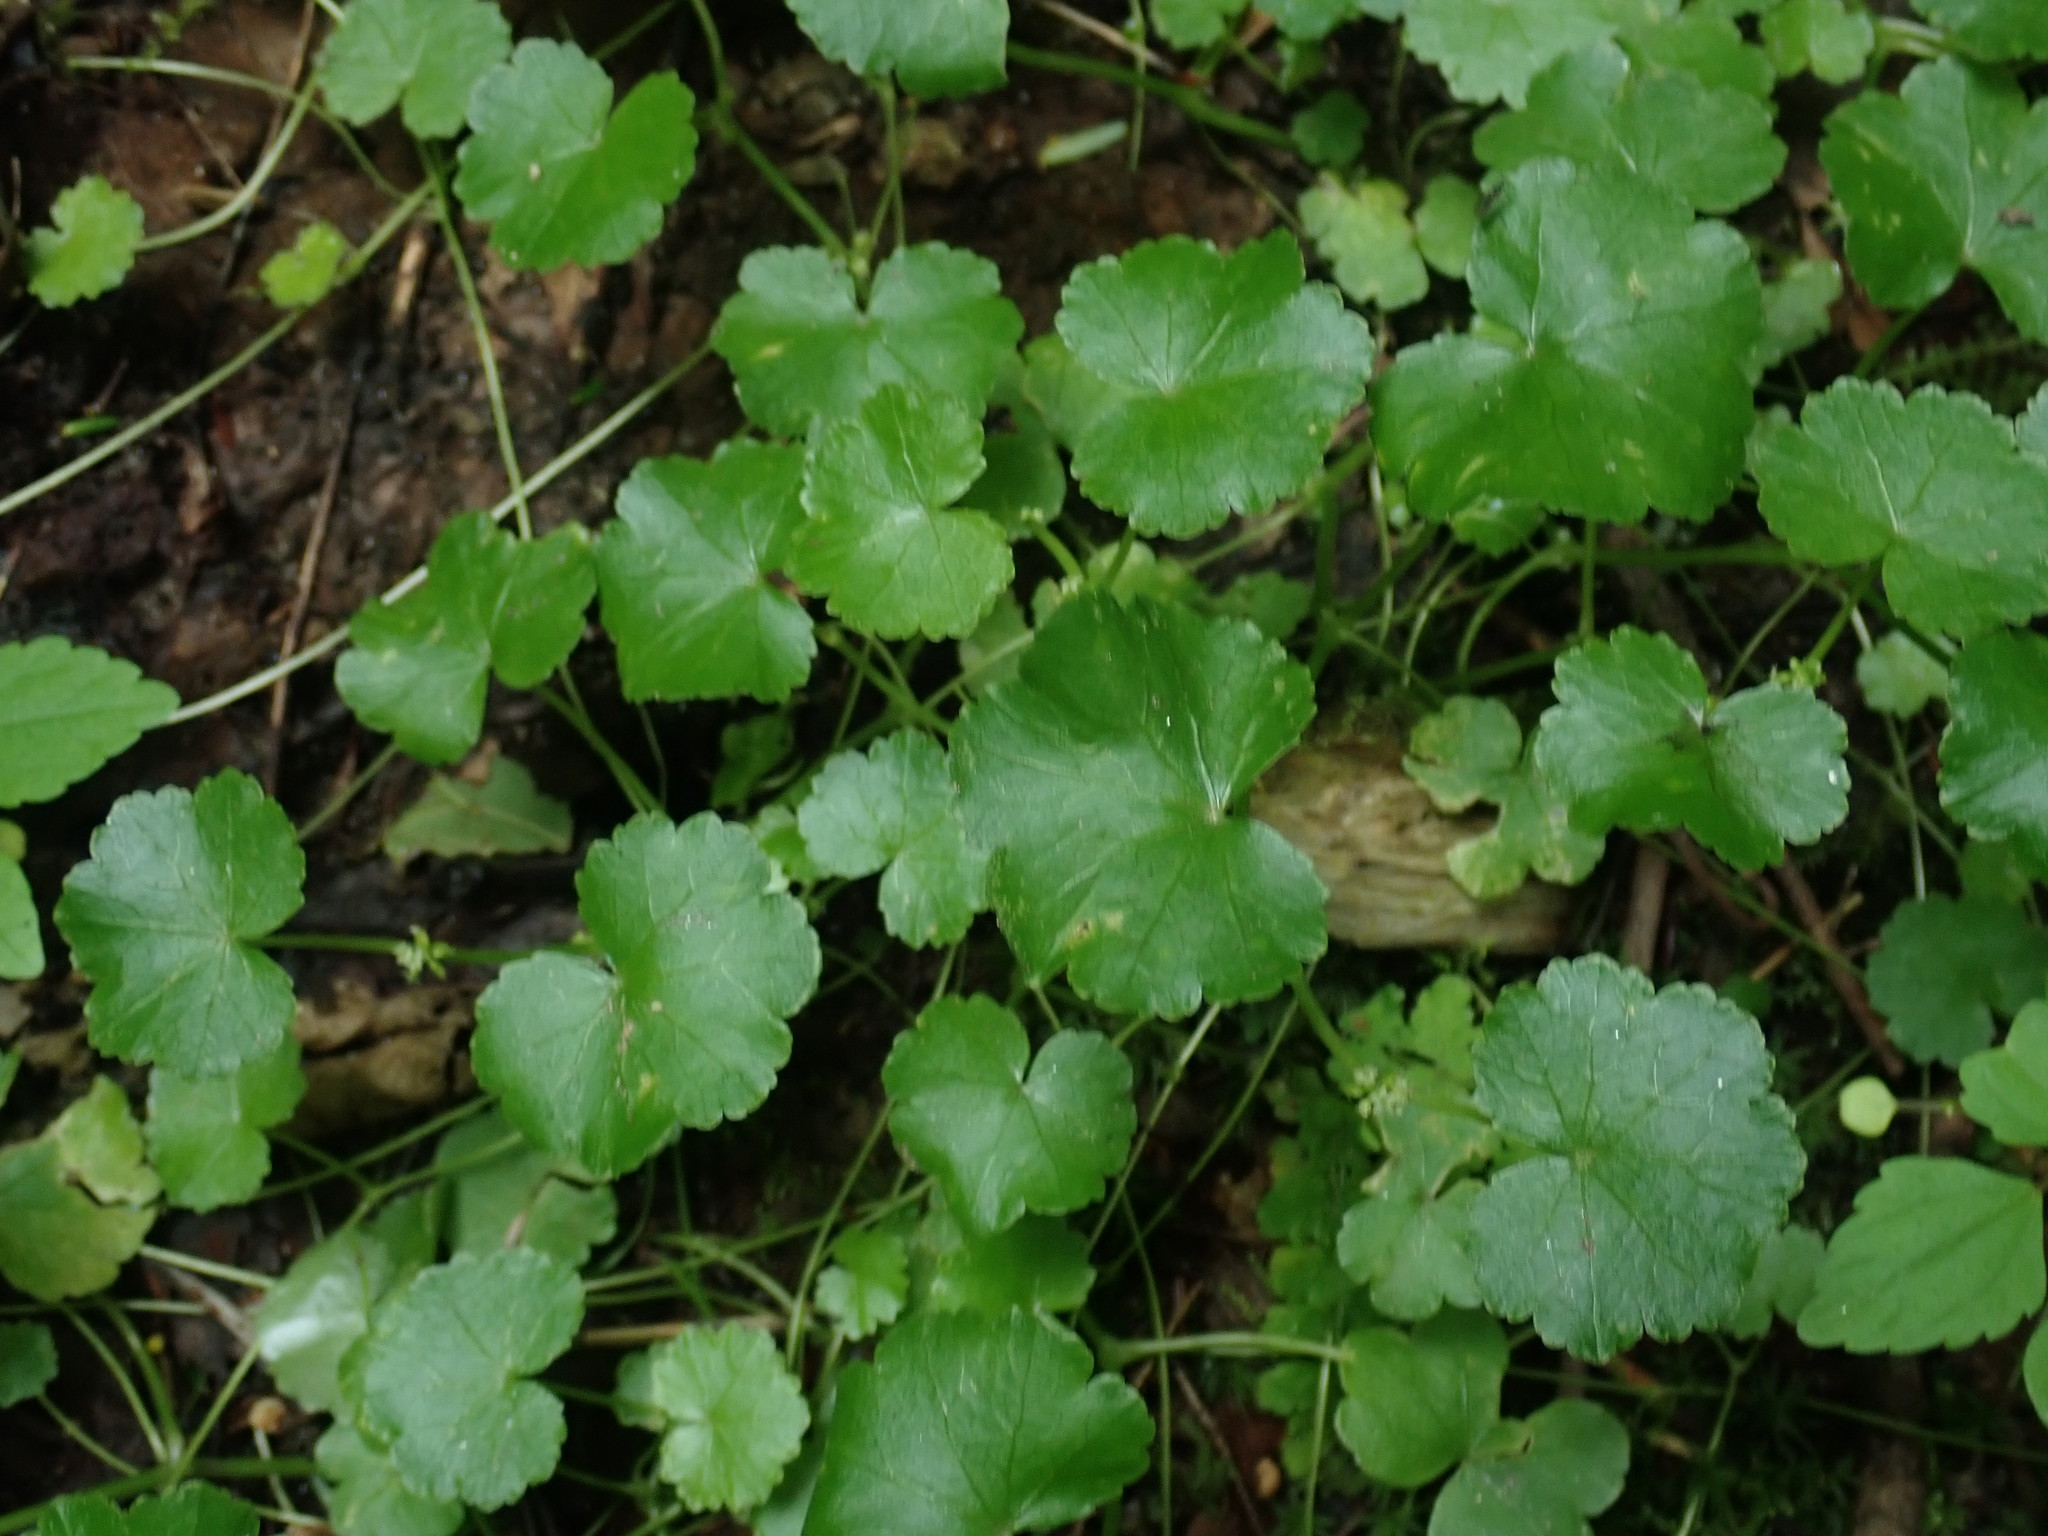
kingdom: Plantae
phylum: Tracheophyta
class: Magnoliopsida
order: Apiales
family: Araliaceae
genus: Hydrocotyle
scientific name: Hydrocotyle americana
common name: American water-pennywort
